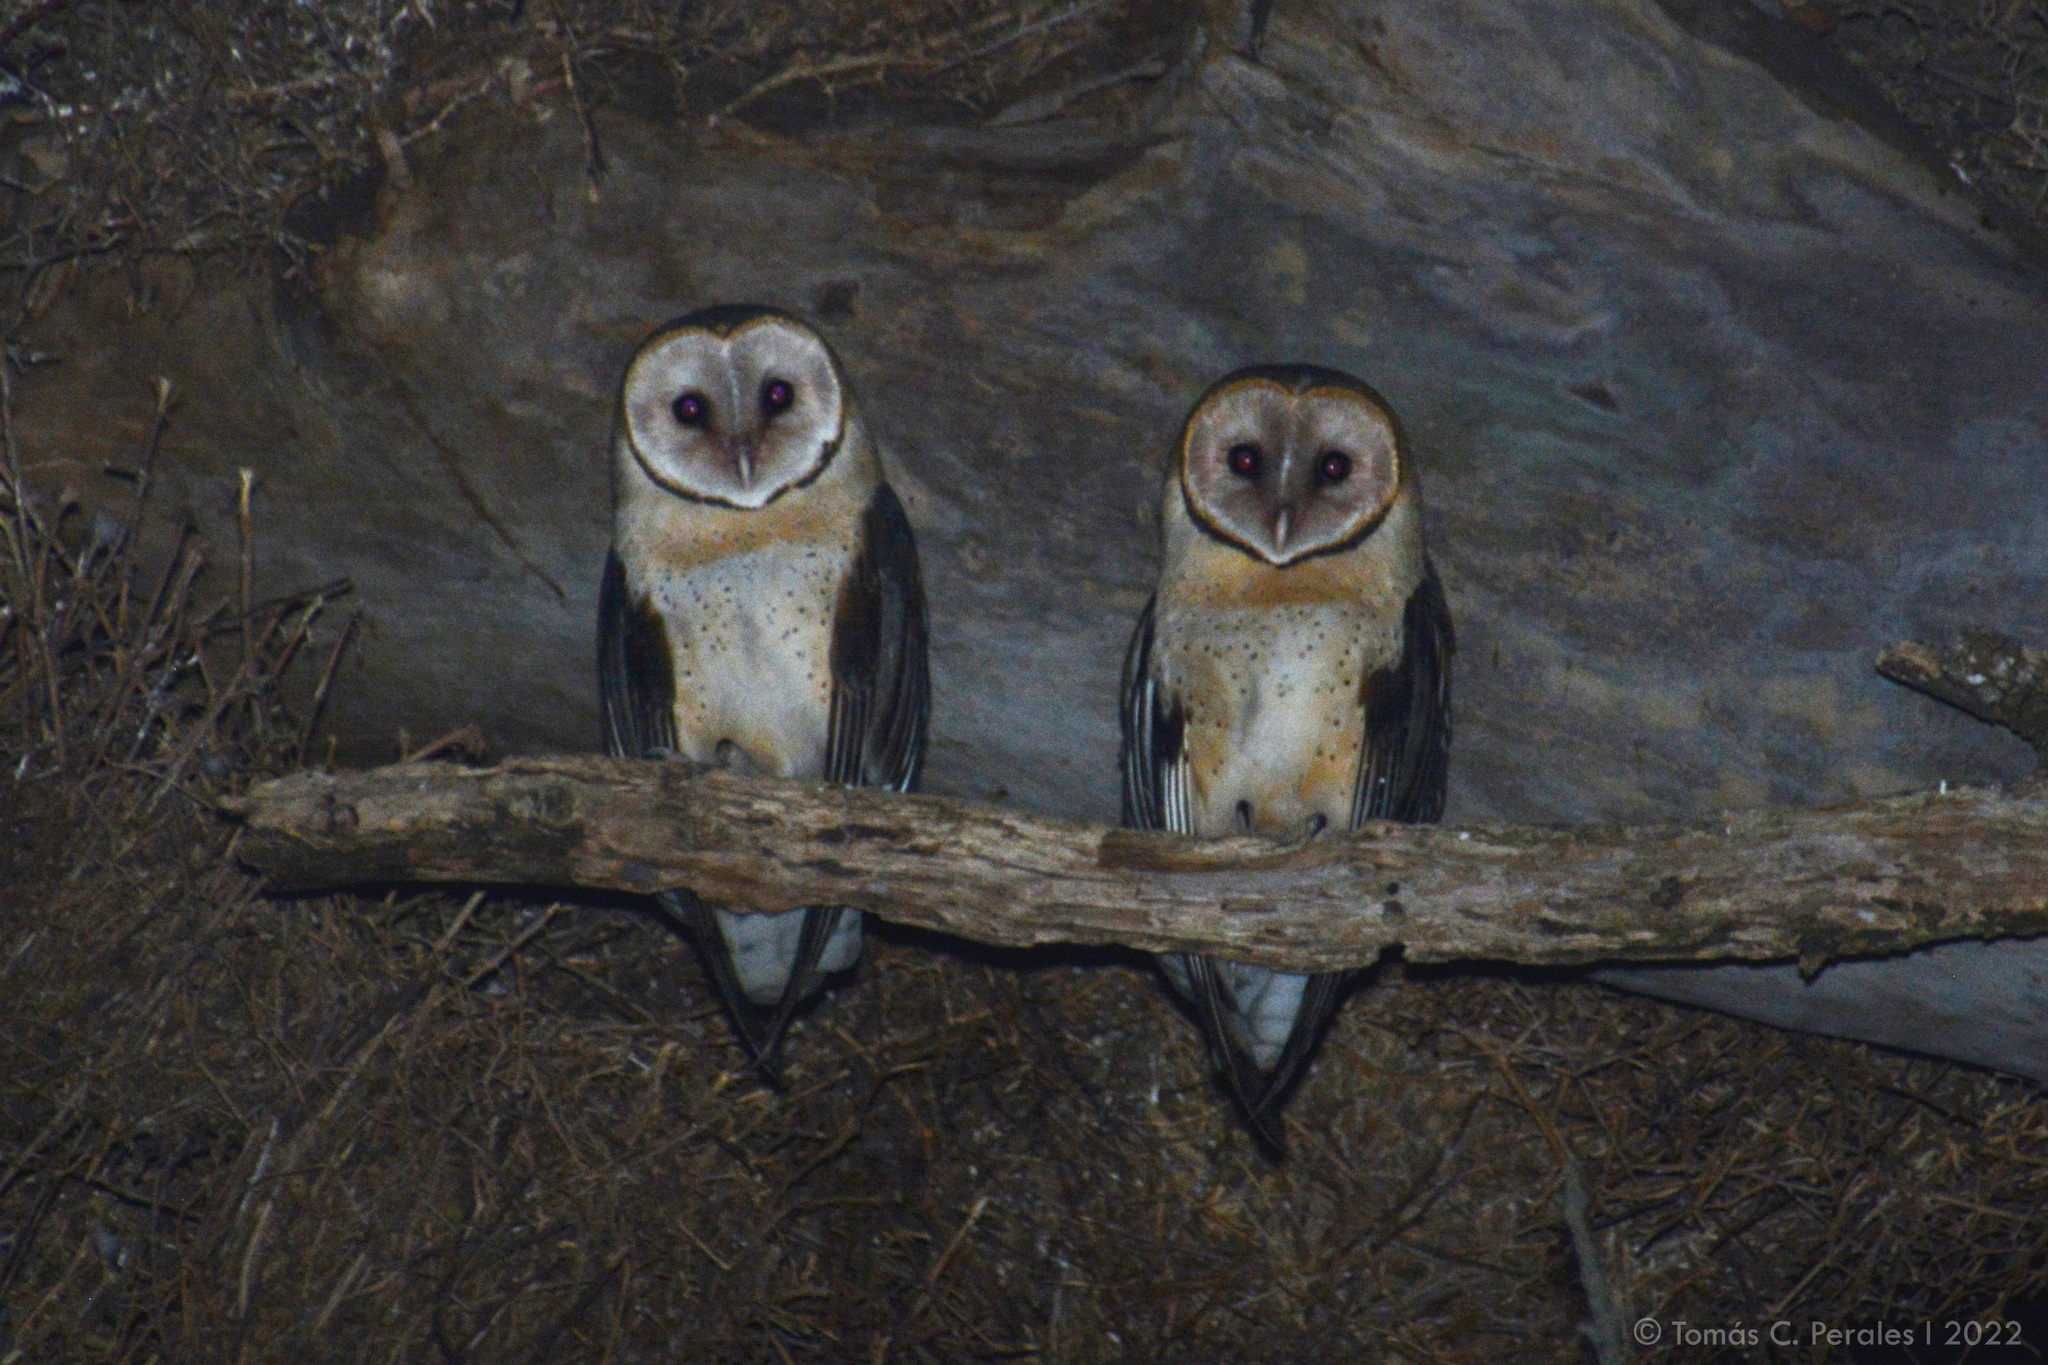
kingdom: Animalia
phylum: Chordata
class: Aves
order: Strigiformes
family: Tytonidae
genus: Tyto
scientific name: Tyto furcata
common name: American barn owl
